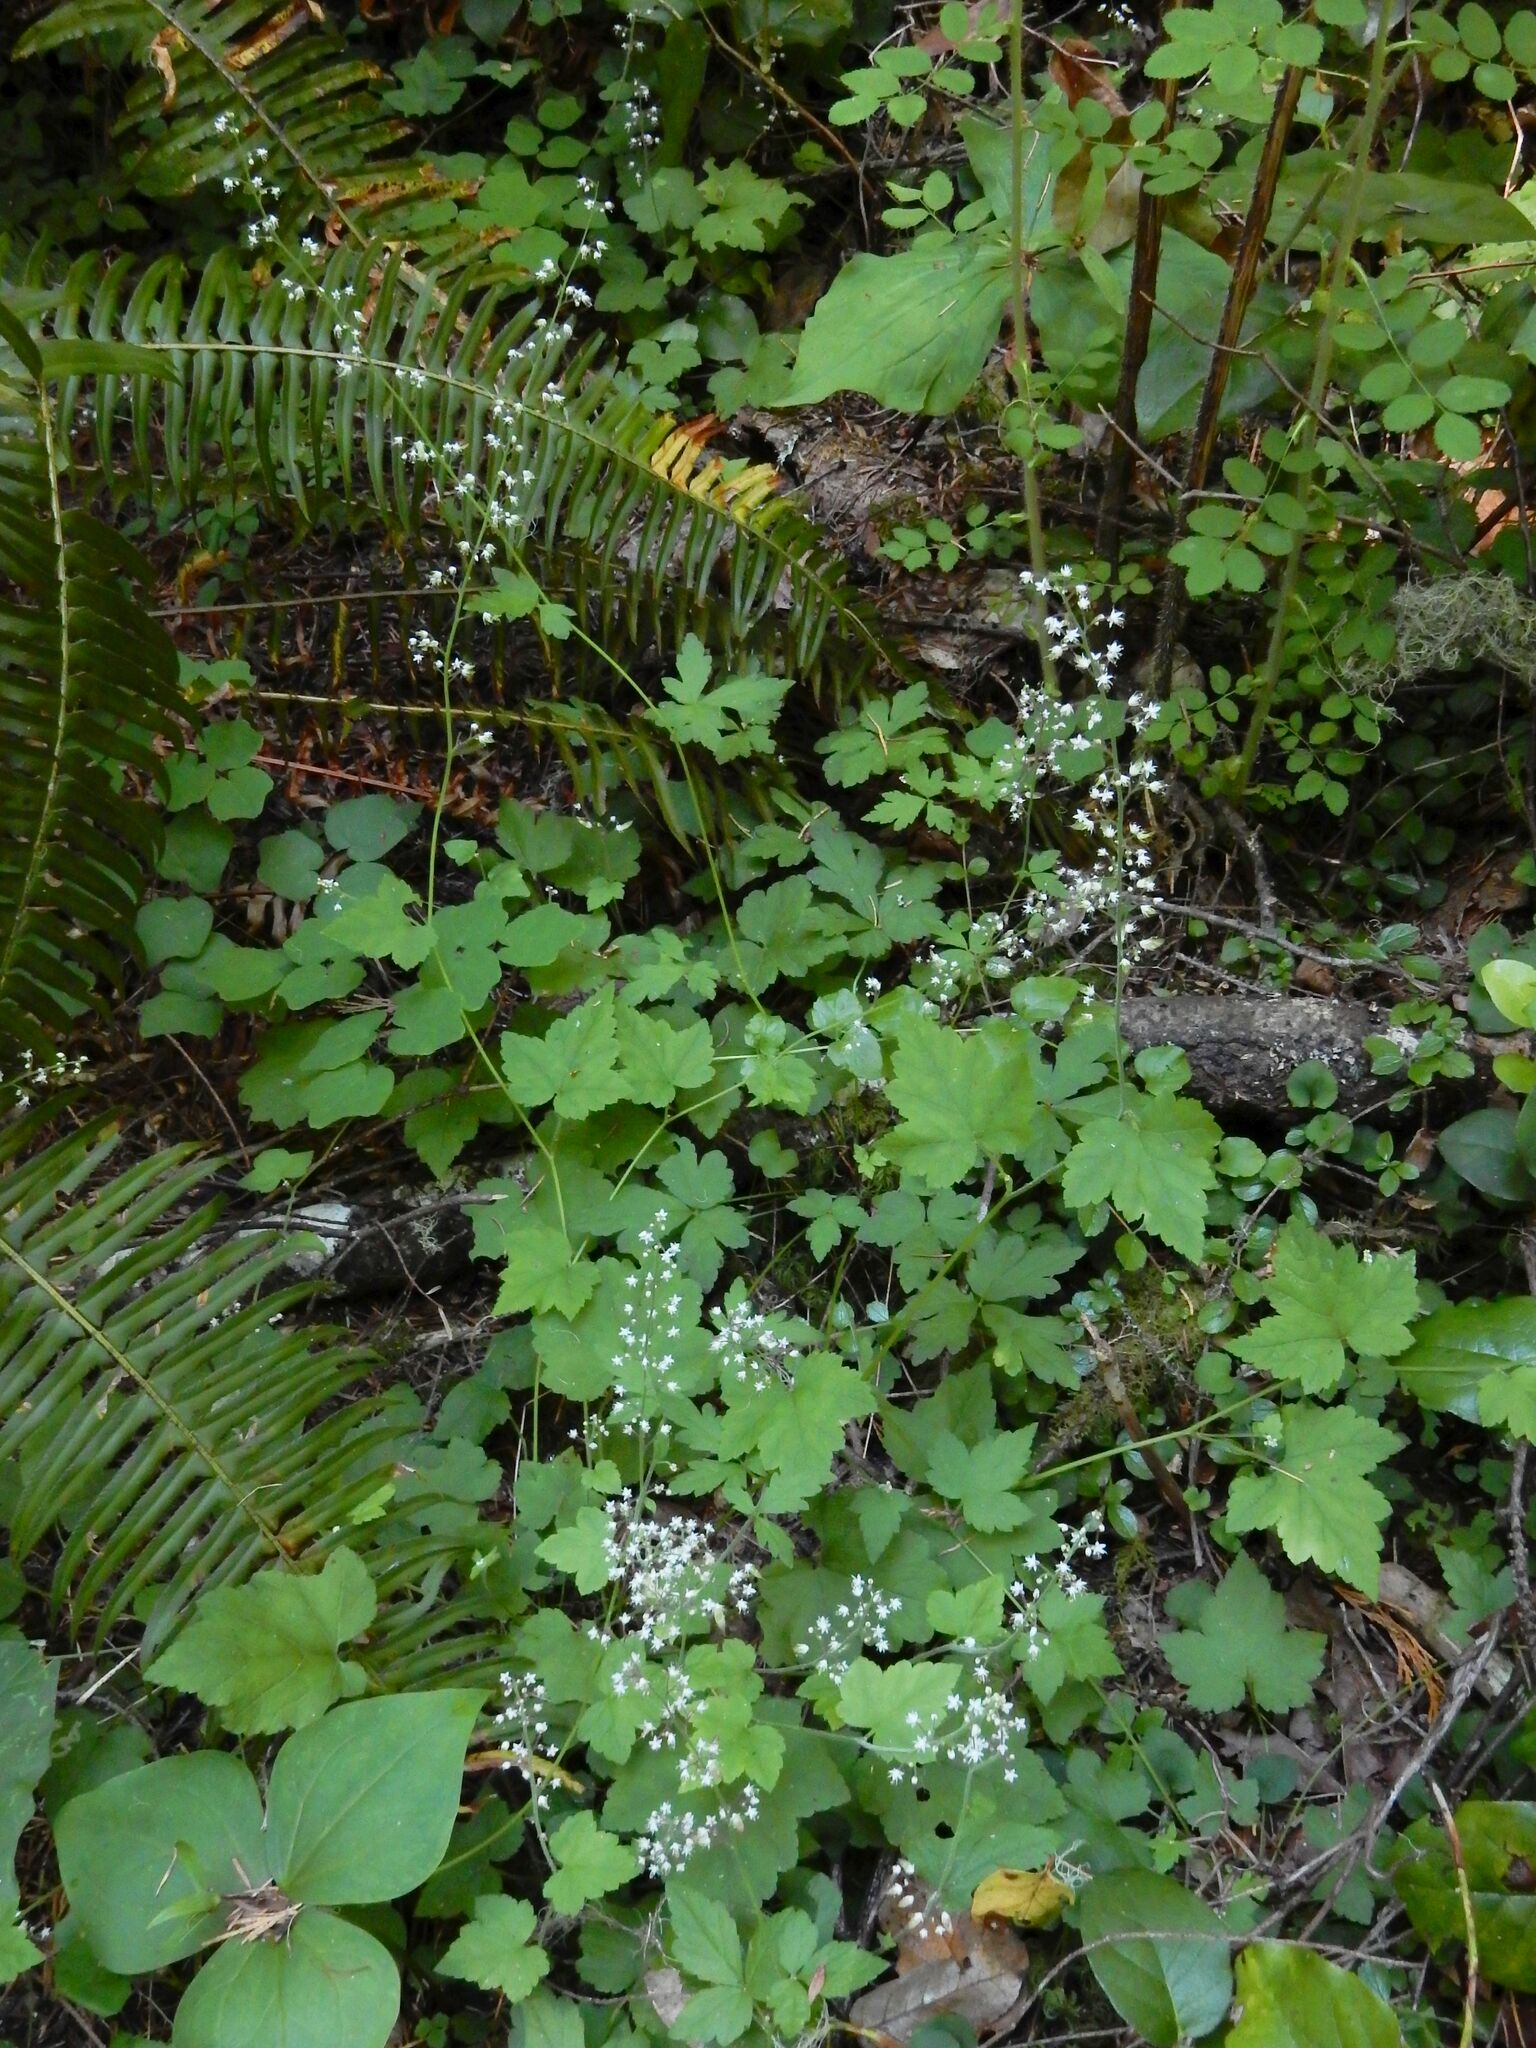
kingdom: Plantae
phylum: Tracheophyta
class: Magnoliopsida
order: Saxifragales
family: Saxifragaceae
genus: Tiarella
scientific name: Tiarella trifoliata
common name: Sugar-scoop
